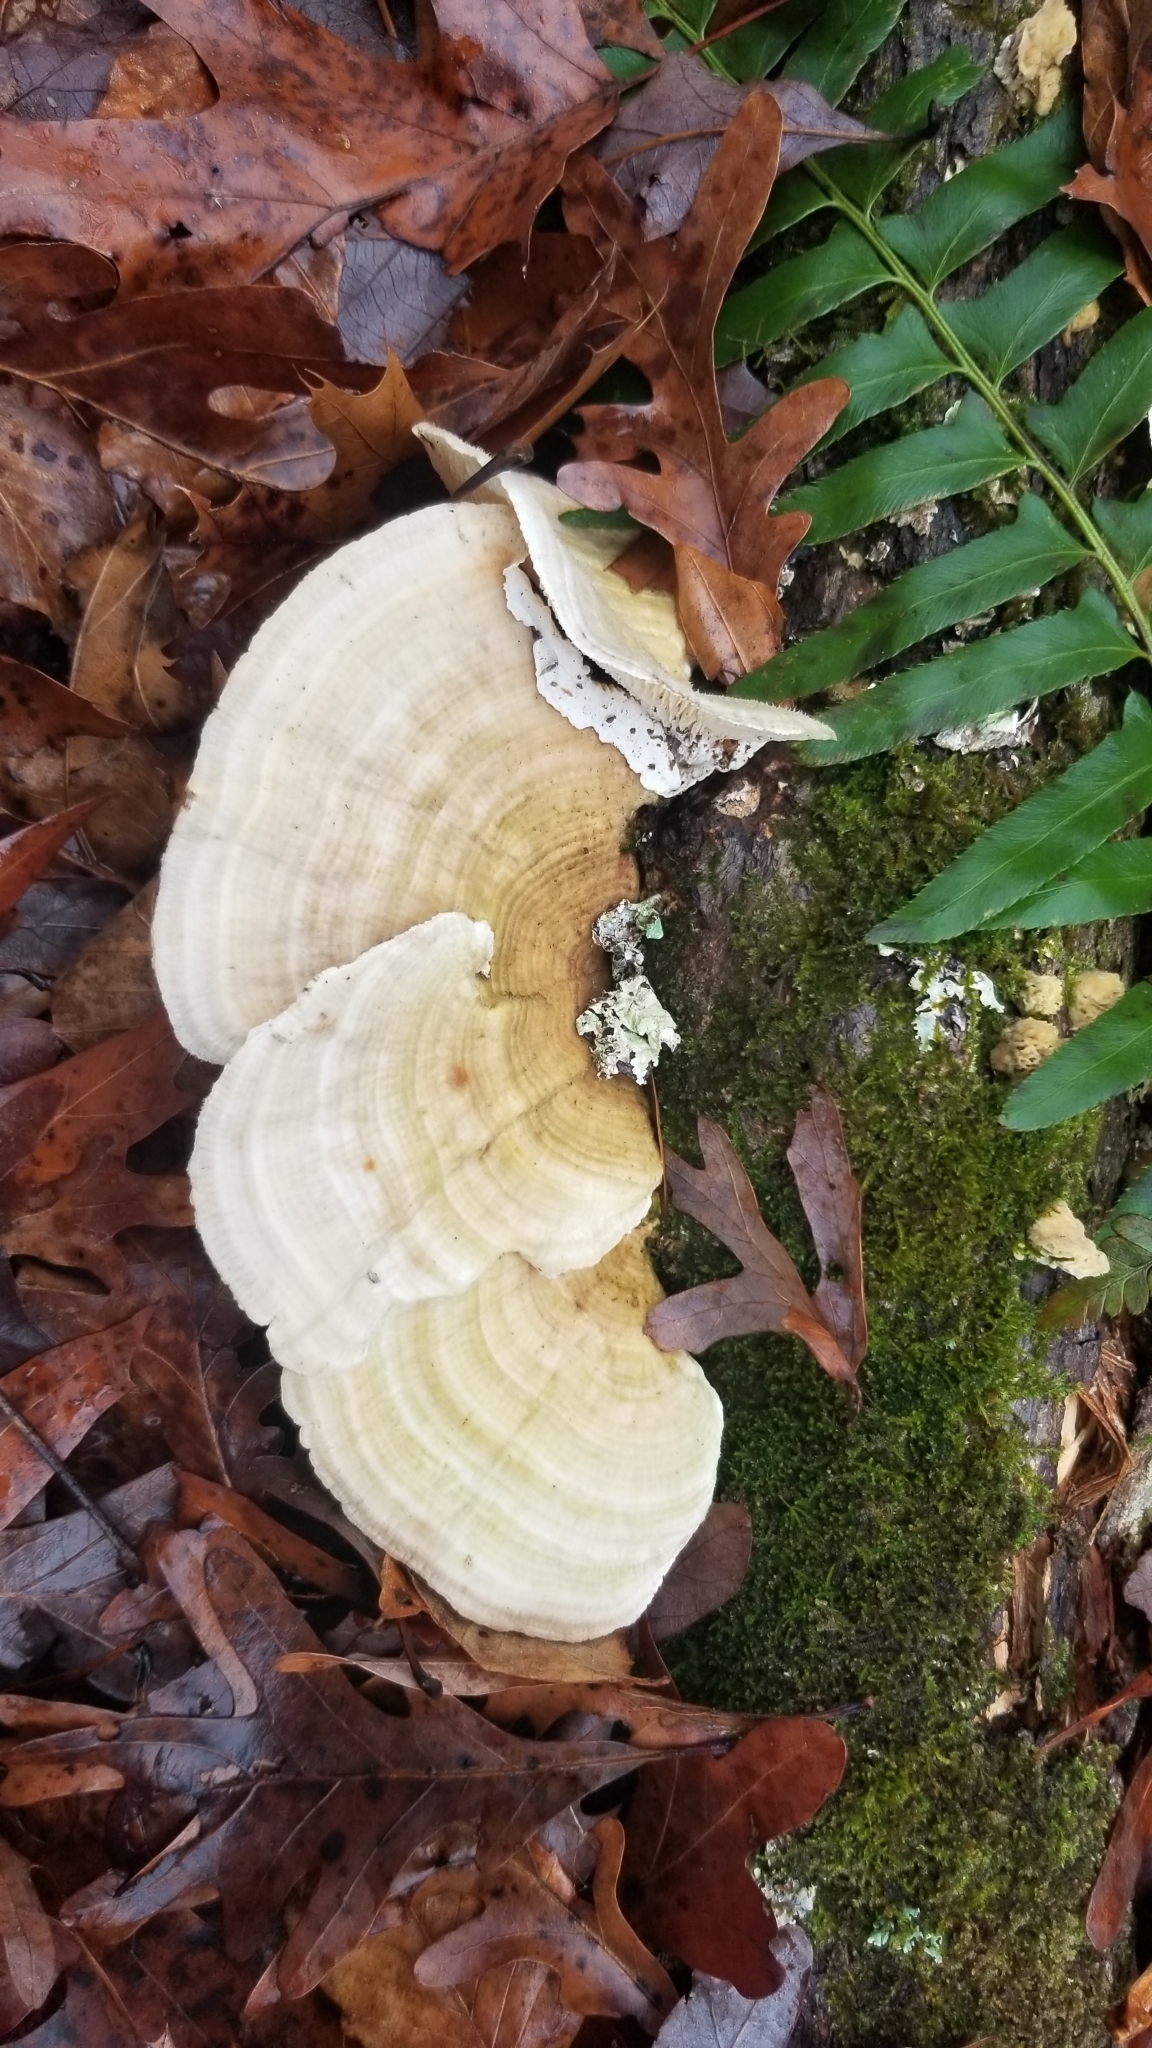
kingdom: Fungi
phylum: Basidiomycota
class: Agaricomycetes
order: Polyporales
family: Polyporaceae
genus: Lenzites
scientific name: Lenzites betulinus
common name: Birch mazegill
